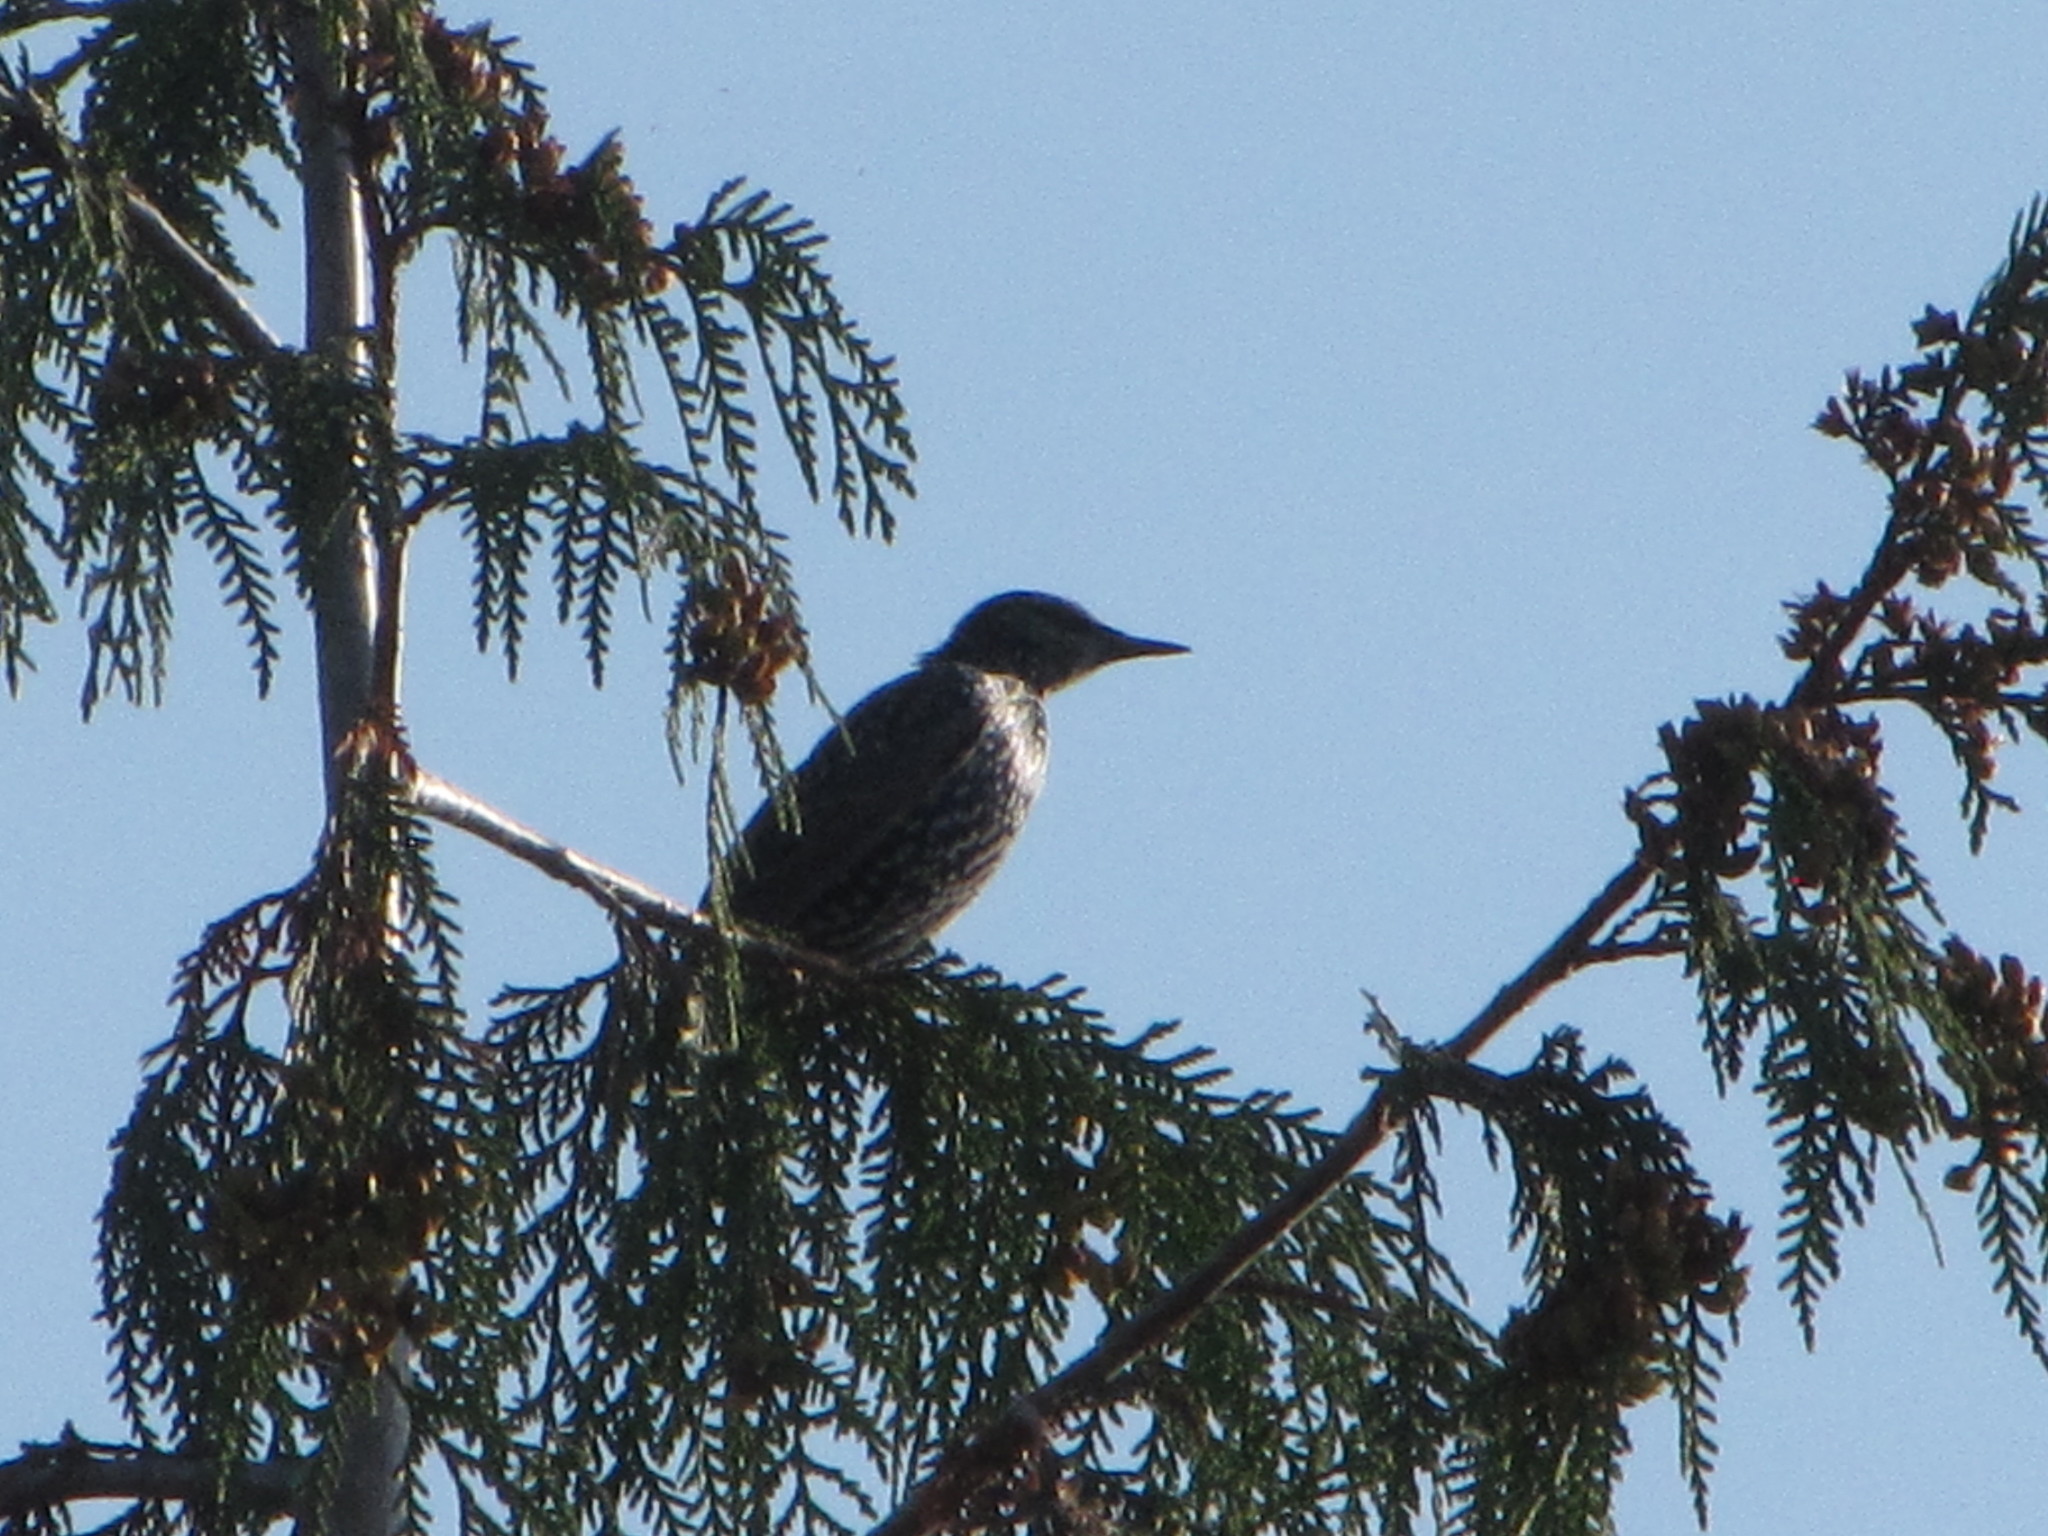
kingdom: Animalia
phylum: Chordata
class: Aves
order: Passeriformes
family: Sturnidae
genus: Sturnus
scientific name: Sturnus vulgaris
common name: Common starling
